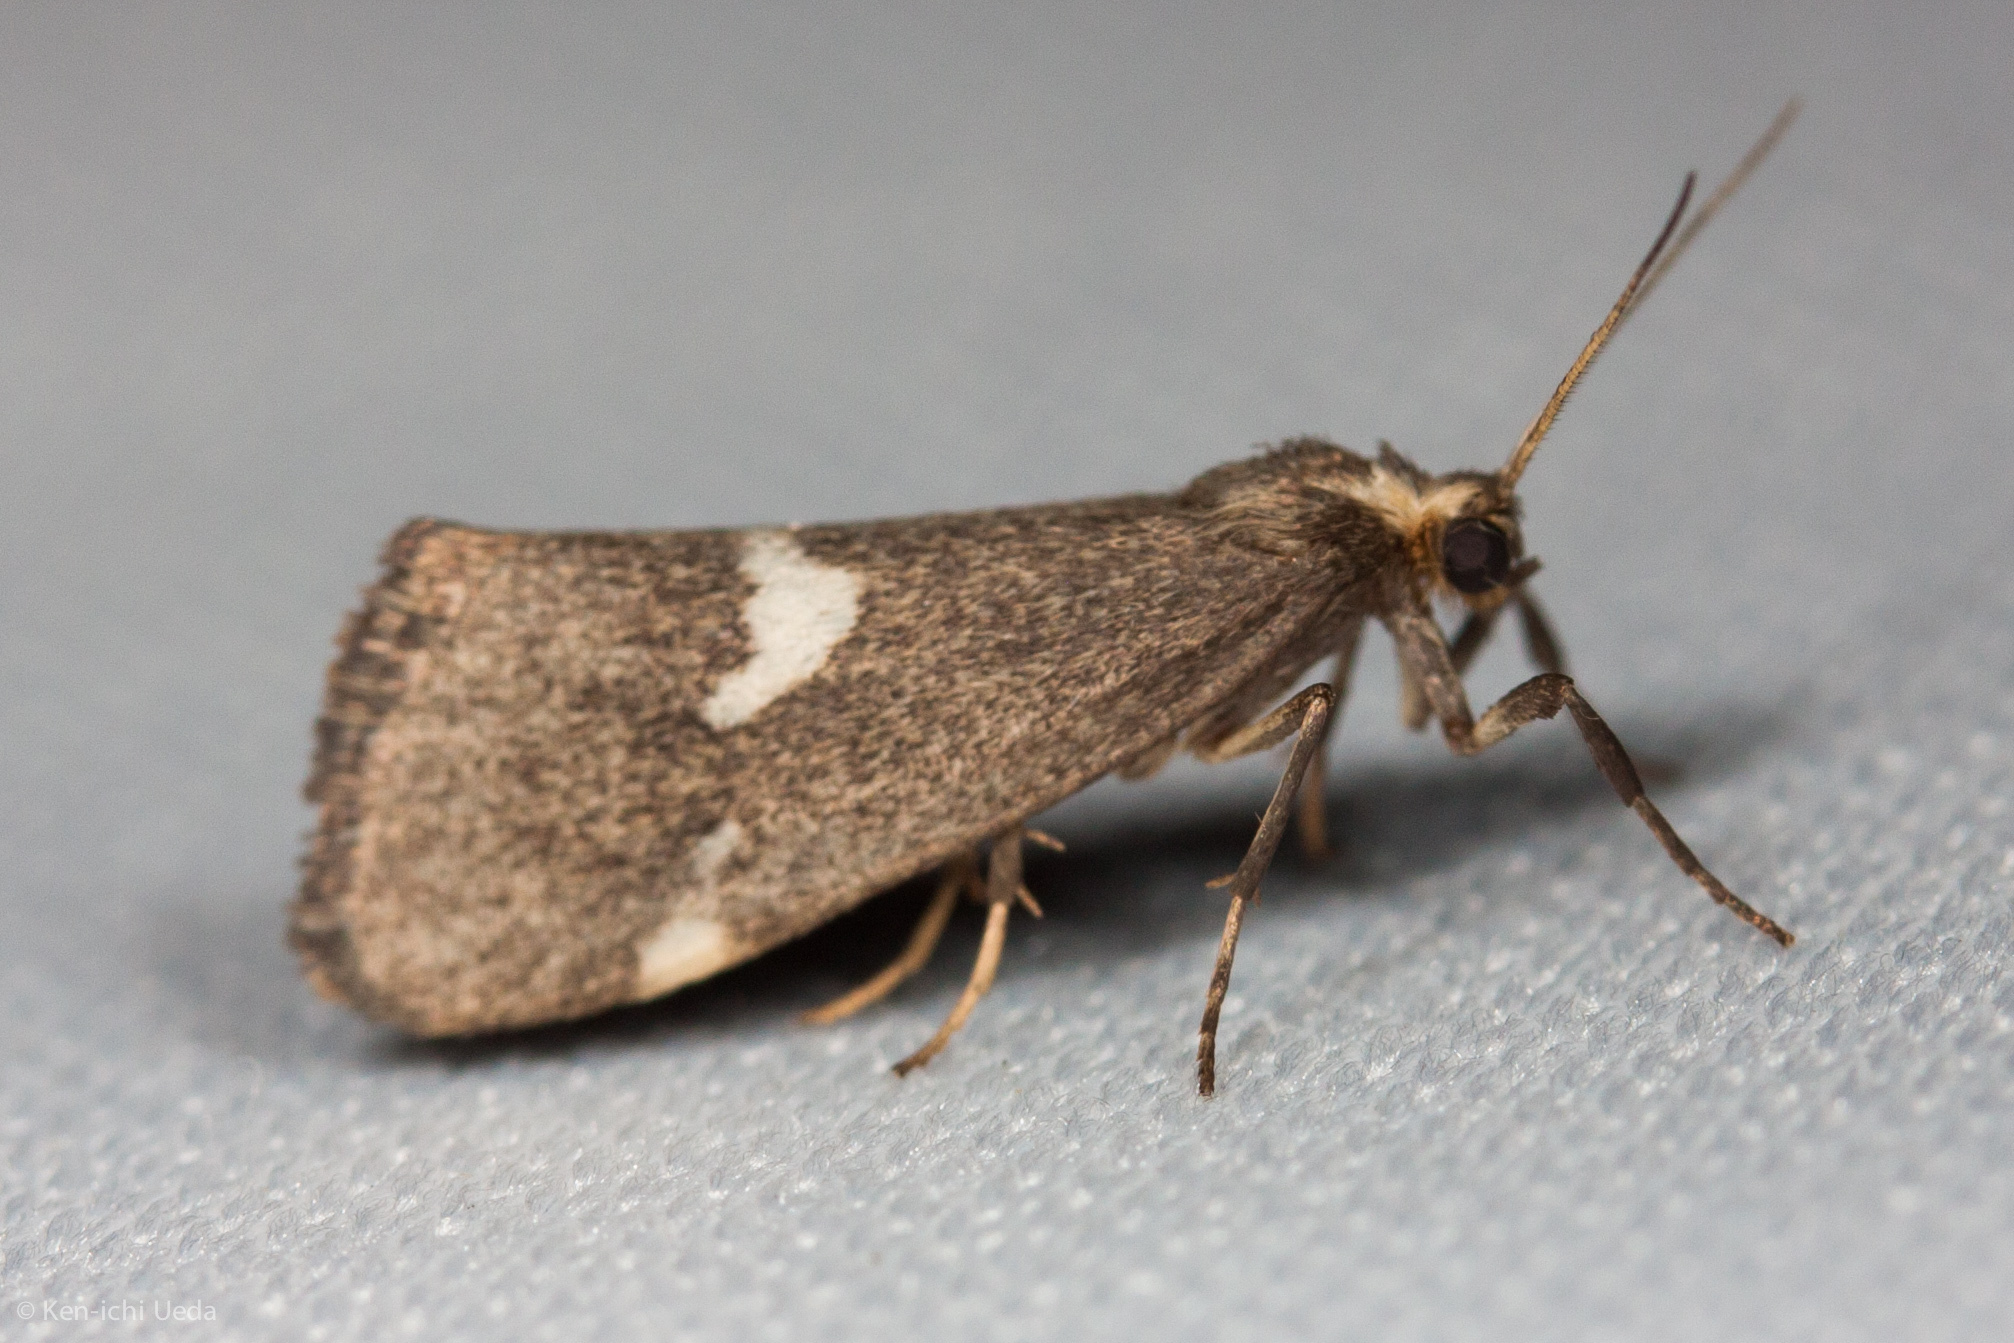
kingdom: Animalia
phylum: Arthropoda
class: Insecta
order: Lepidoptera
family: Erebidae
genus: Cisthene
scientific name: Cisthene liberomacula
